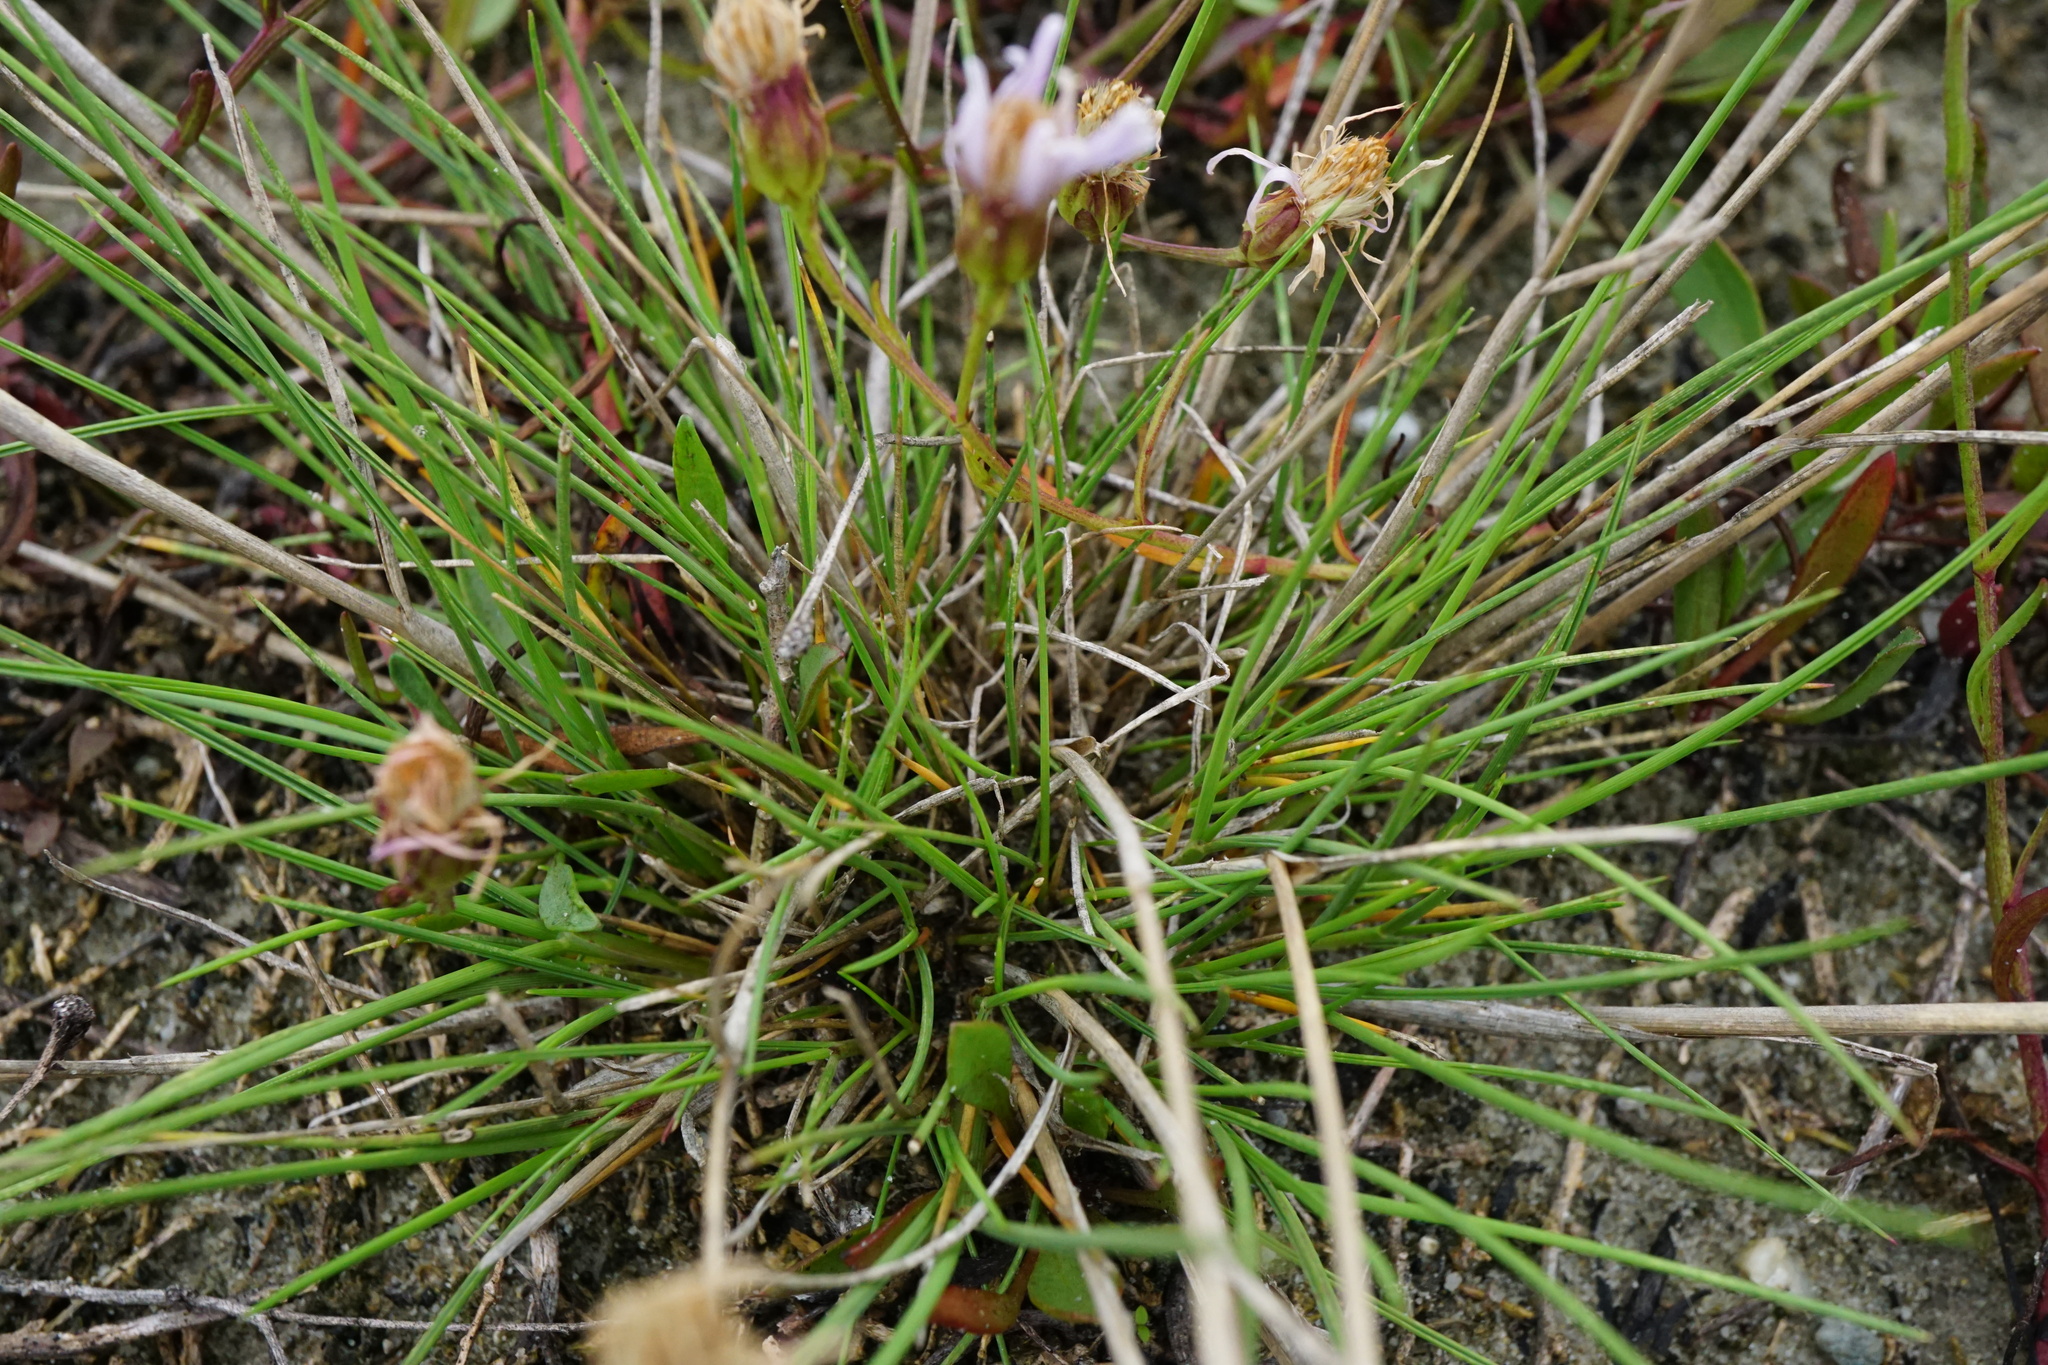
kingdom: Plantae
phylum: Tracheophyta
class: Liliopsida
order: Poales
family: Poaceae
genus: Puccinellia
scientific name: Puccinellia intermedia
